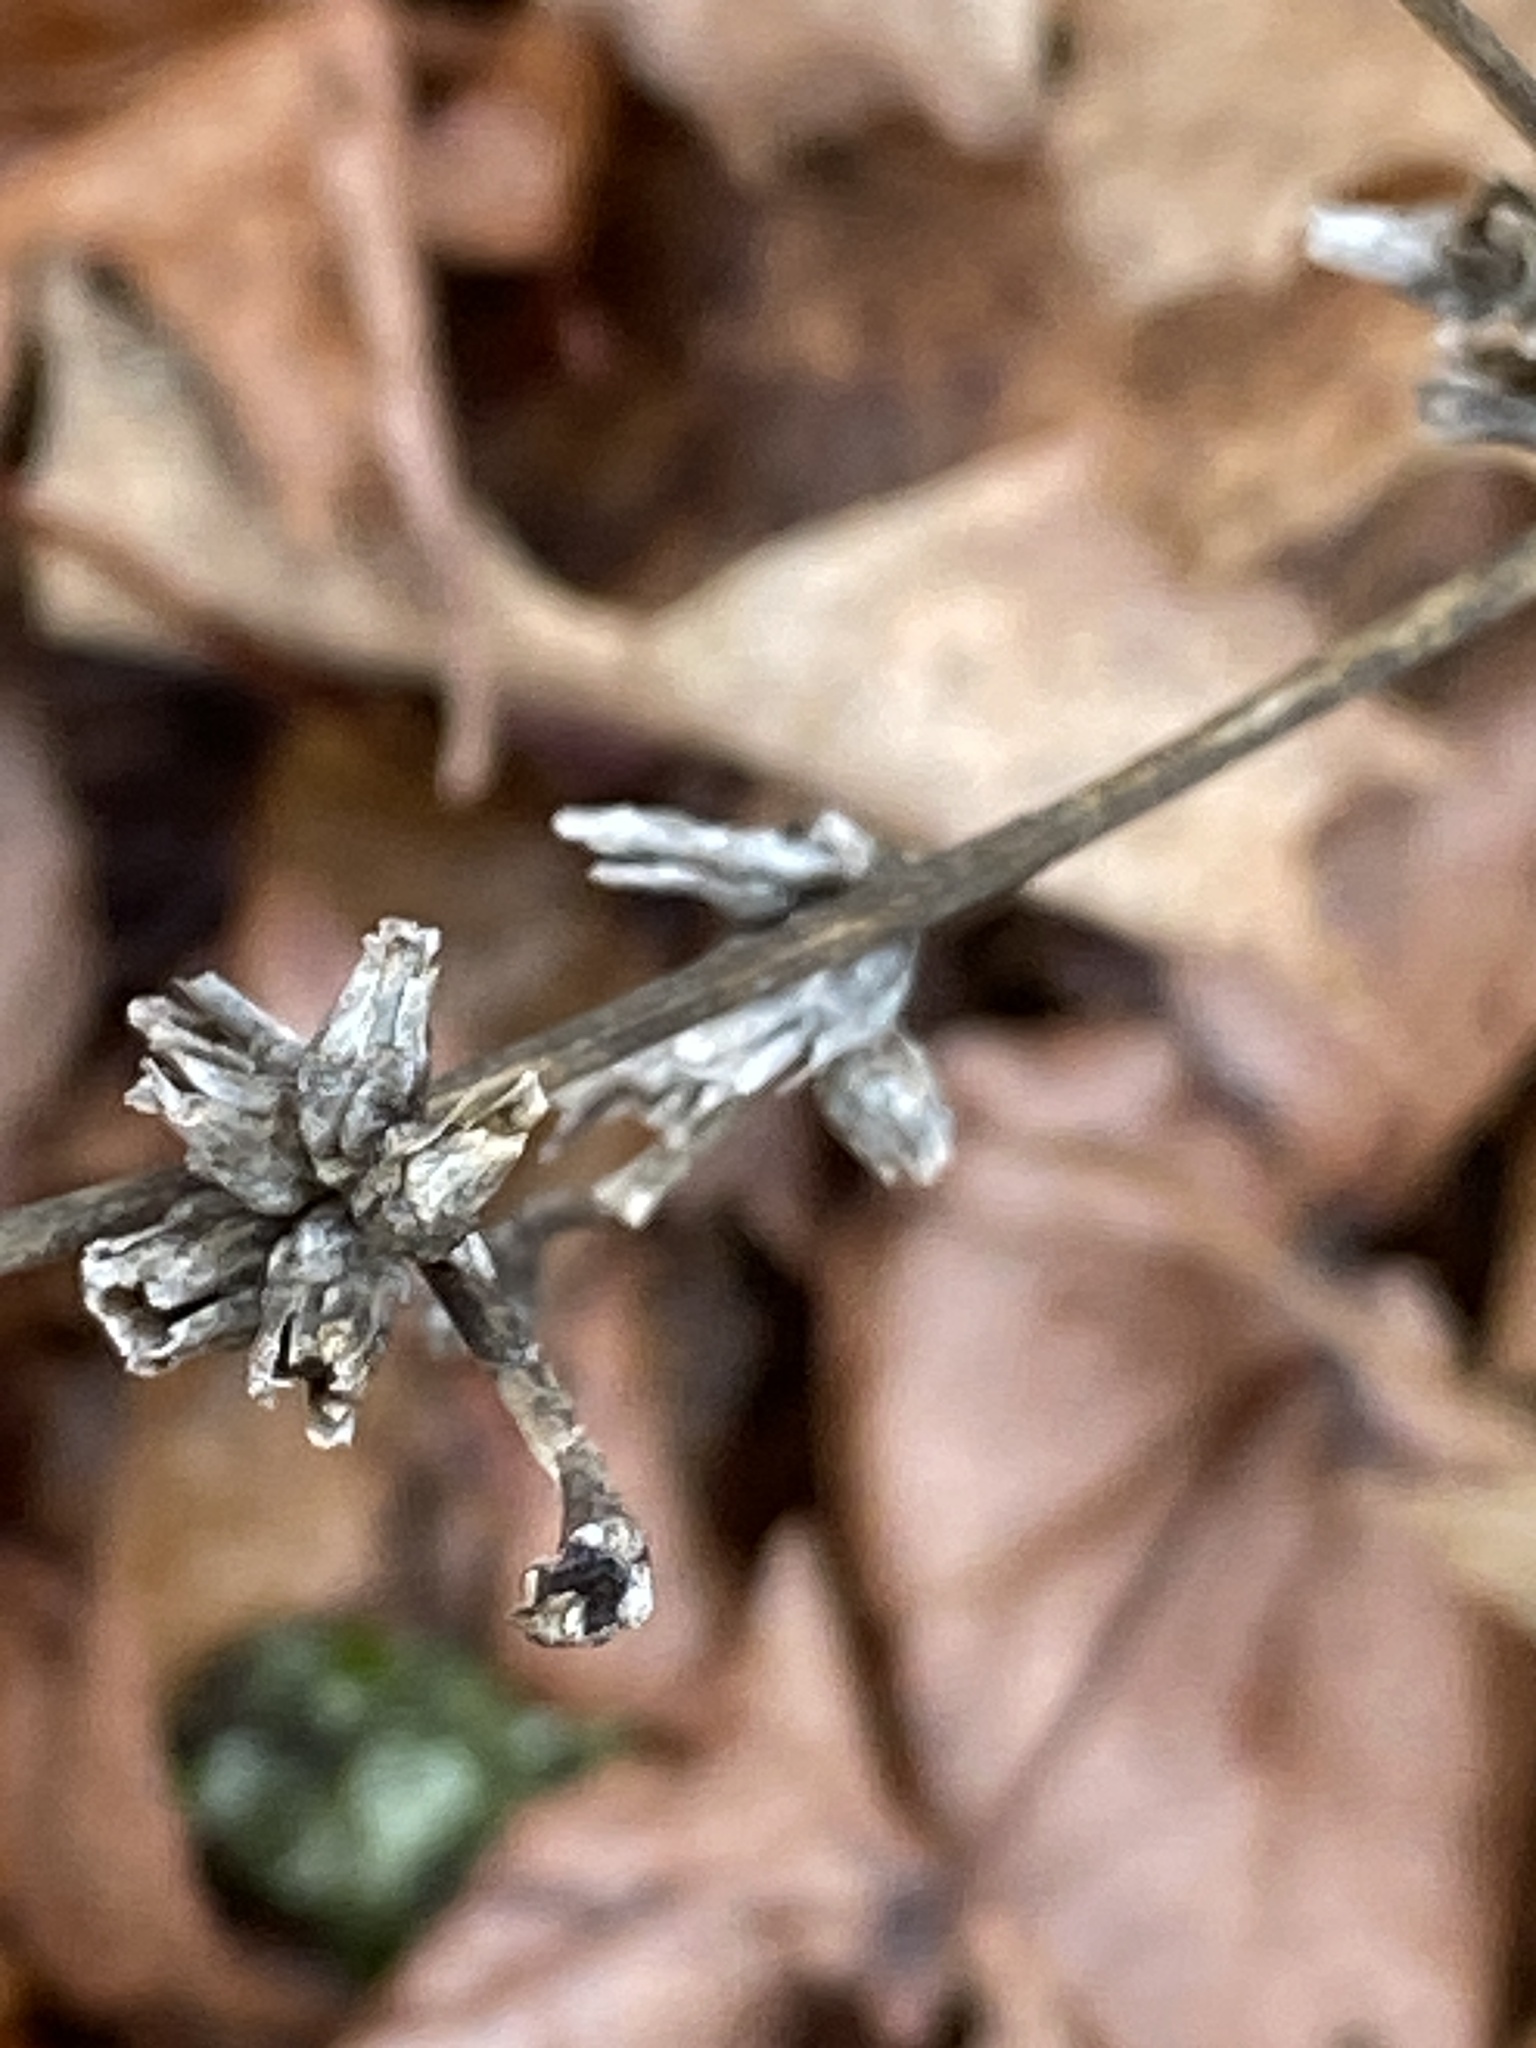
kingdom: Plantae
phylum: Tracheophyta
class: Magnoliopsida
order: Asterales
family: Asteraceae
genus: Cichorium
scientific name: Cichorium intybus
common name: Chicory
